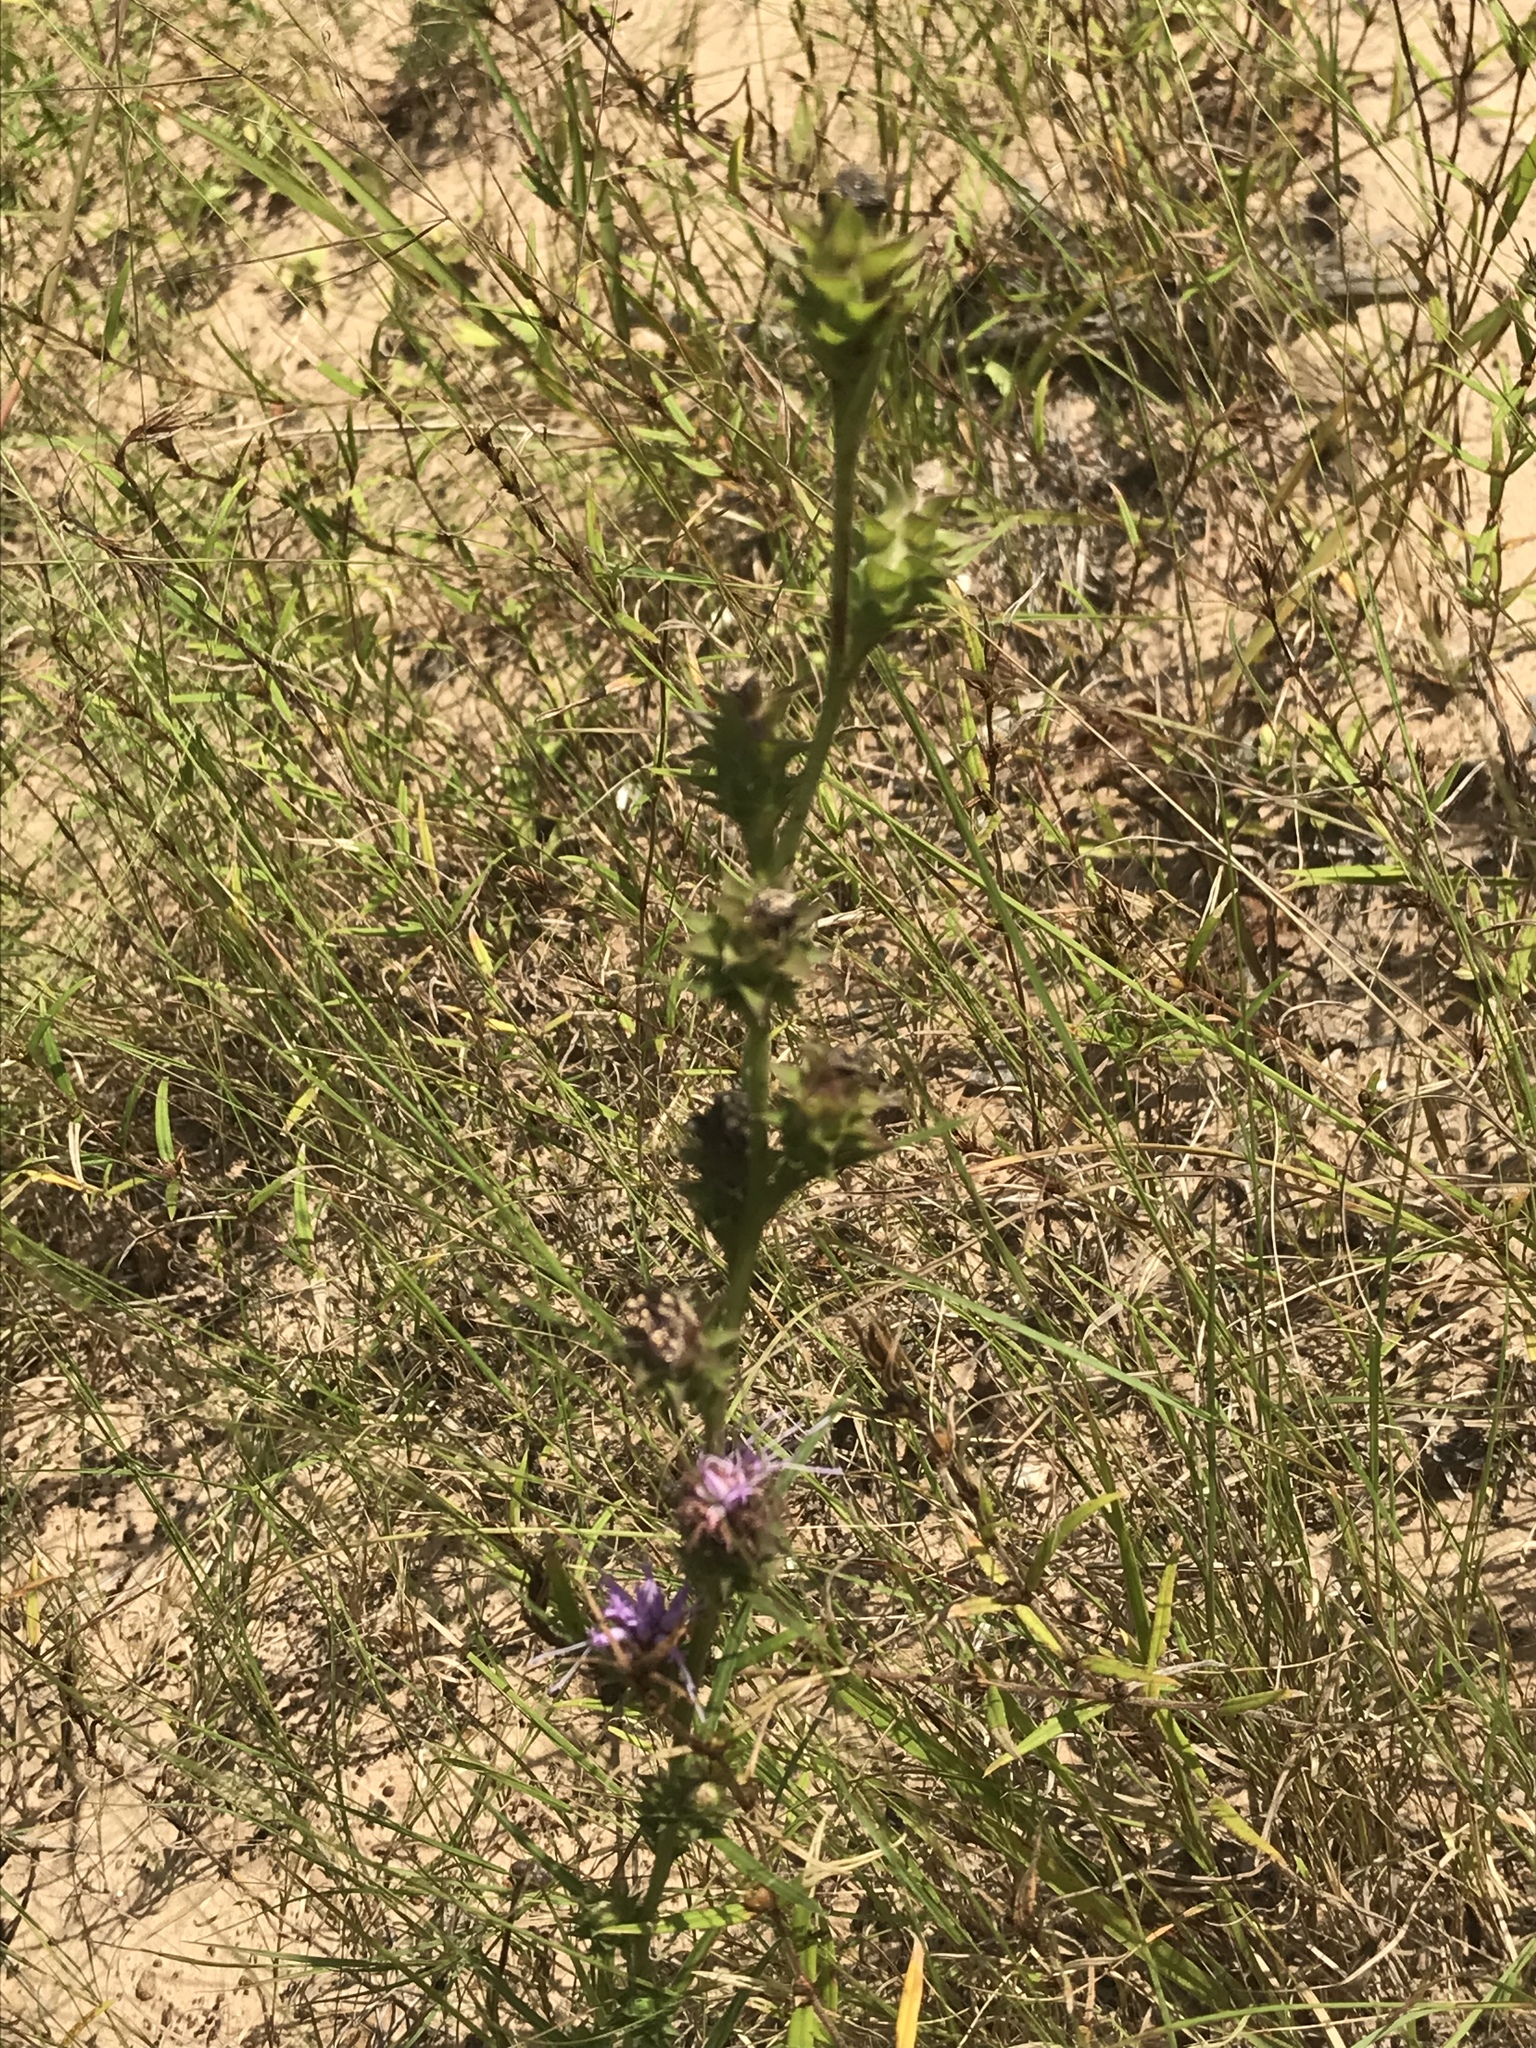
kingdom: Plantae
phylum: Tracheophyta
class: Magnoliopsida
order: Asterales
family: Asteraceae
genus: Liatris
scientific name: Liatris squarrosa
